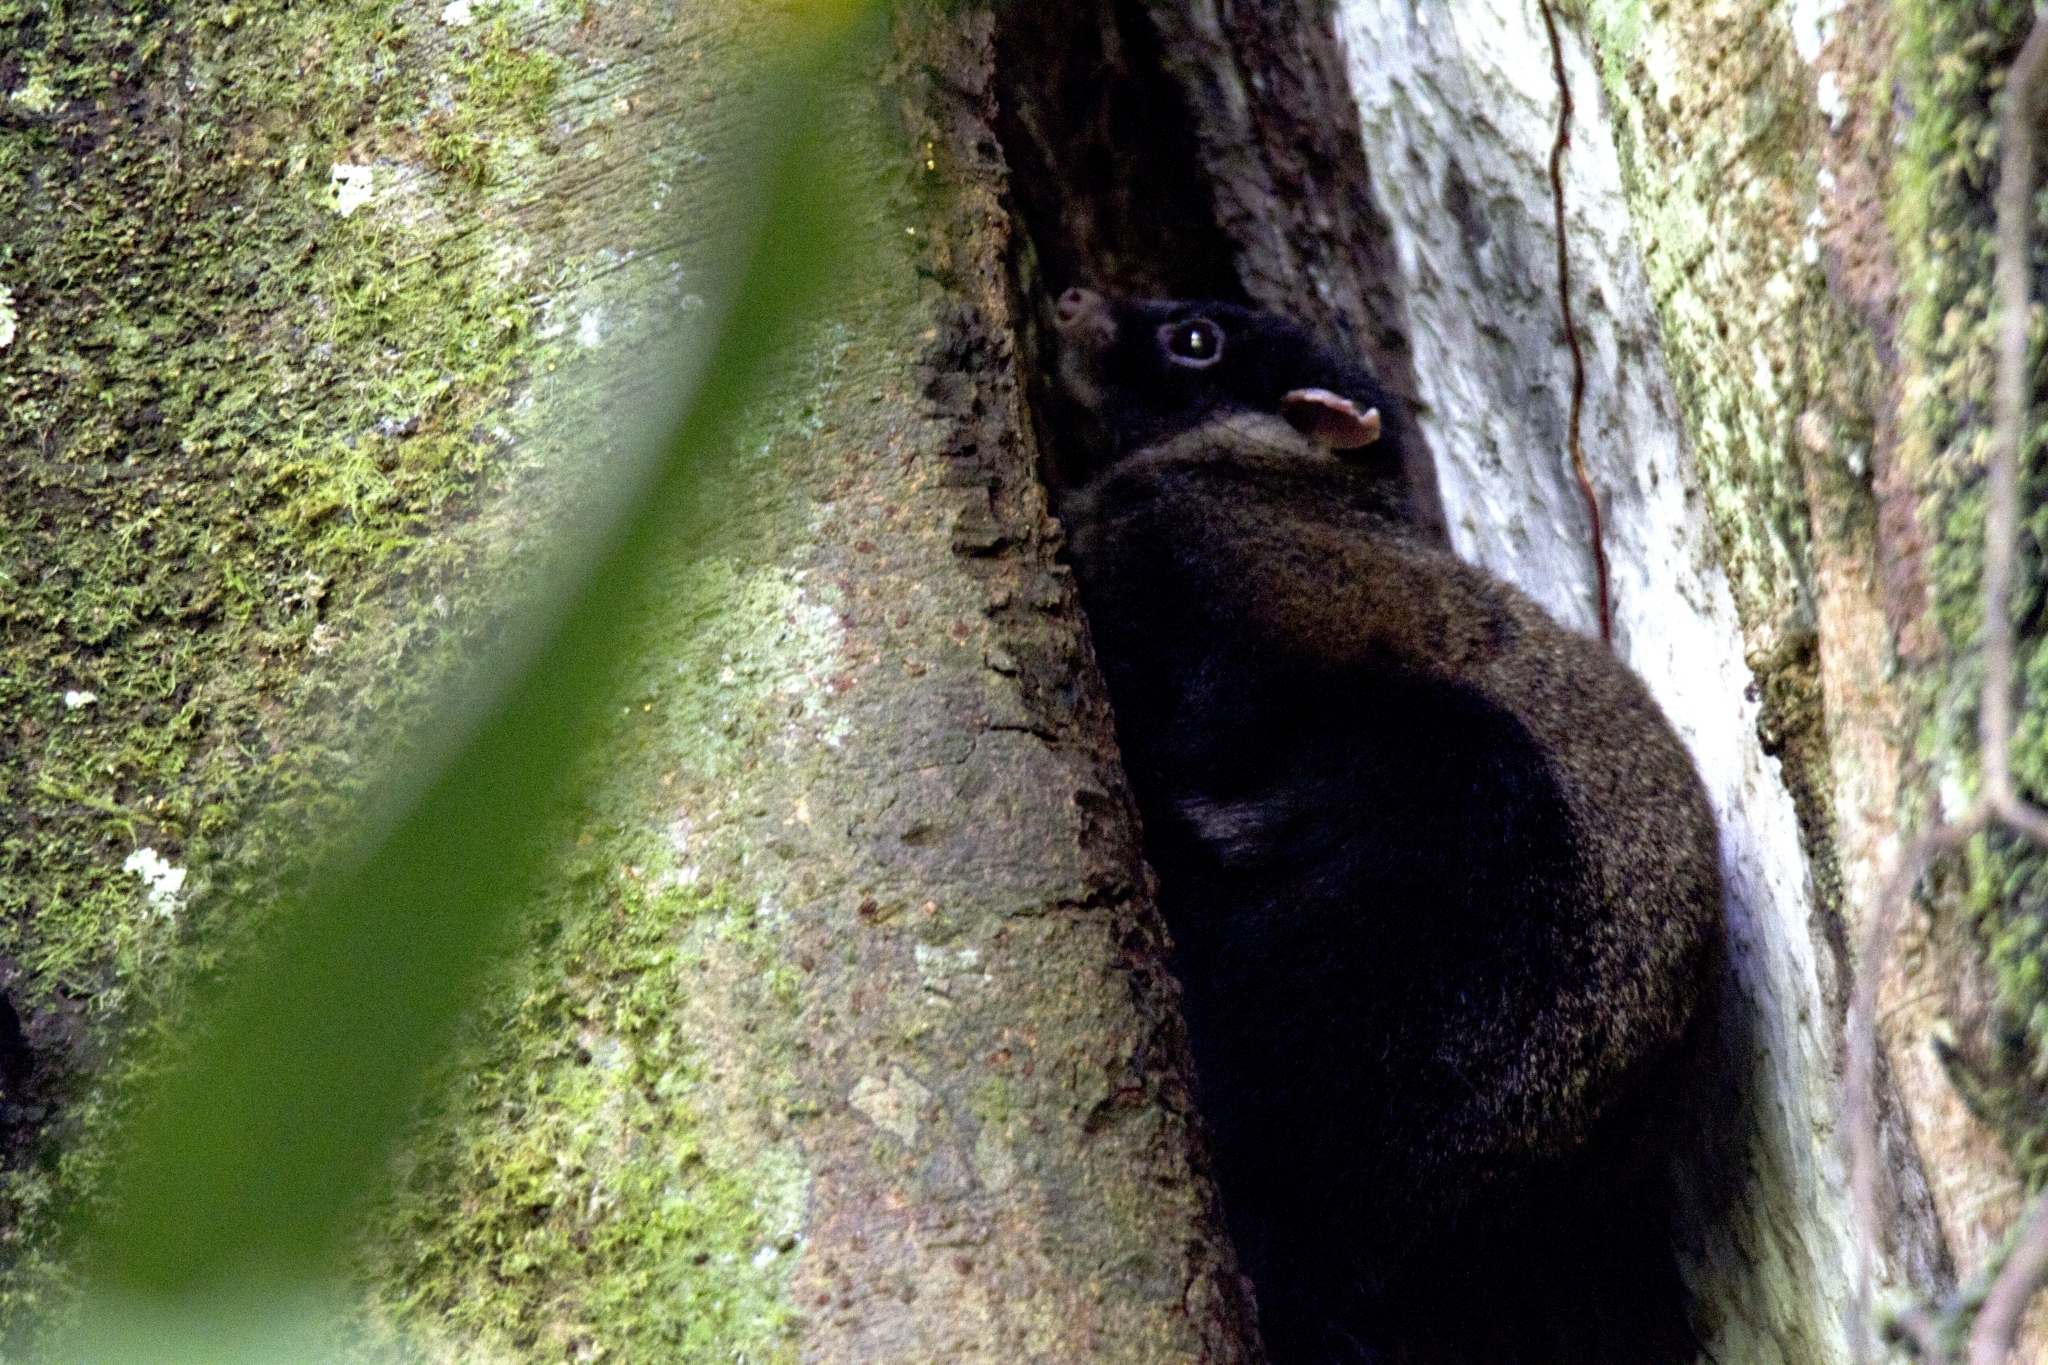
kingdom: Animalia
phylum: Chordata
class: Mammalia
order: Rodentia
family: Anomaluridae
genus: Anomalurus
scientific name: Anomalurus derbianus
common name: Lord derby's flying squirrel
